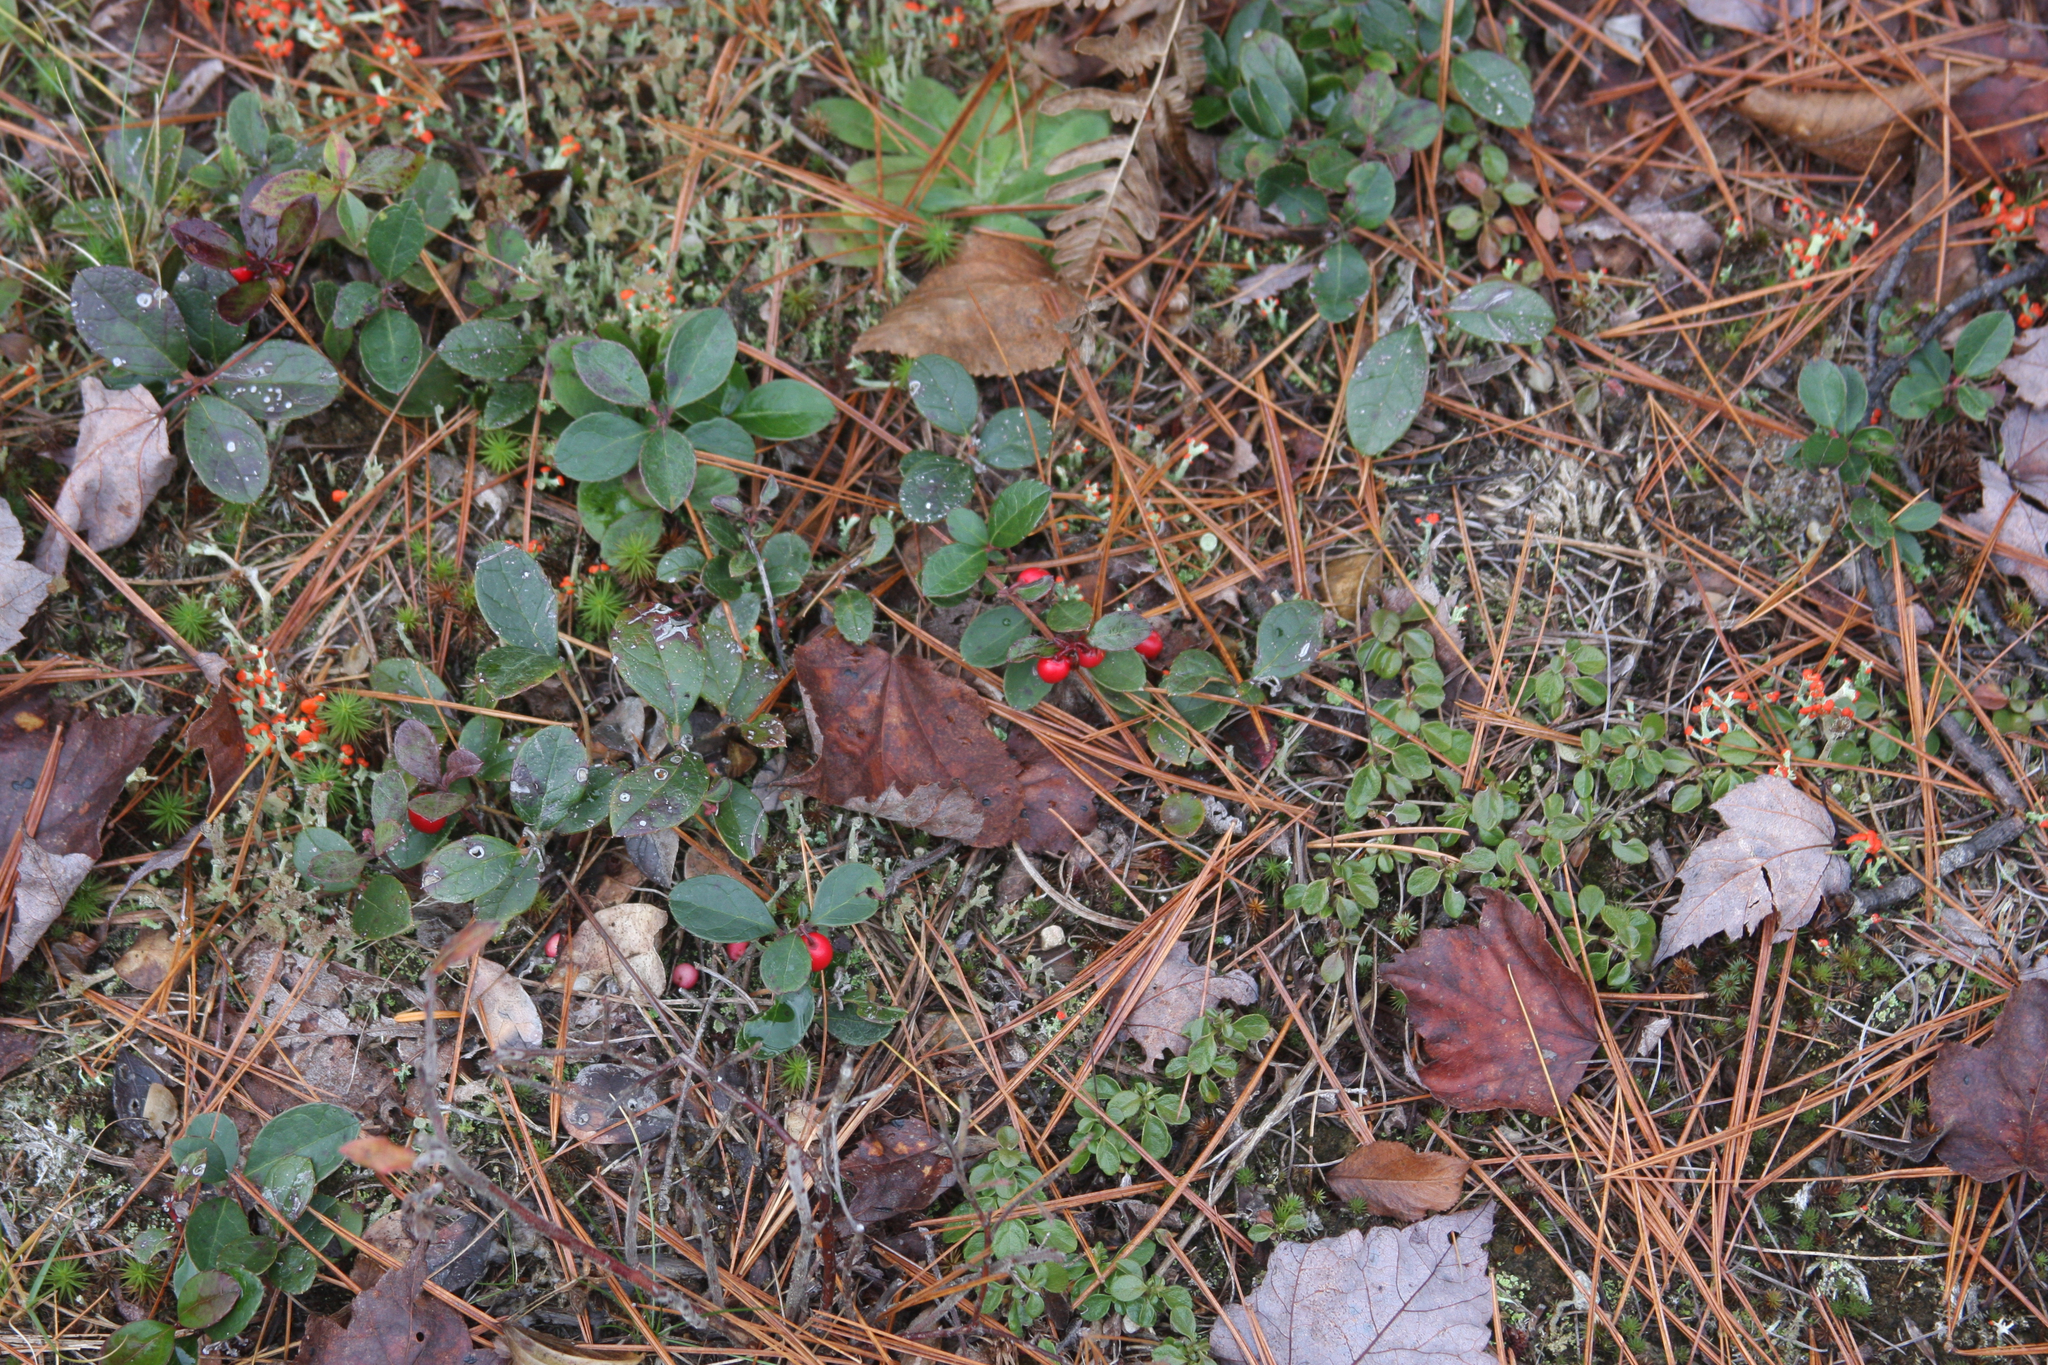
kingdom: Plantae
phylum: Tracheophyta
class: Magnoliopsida
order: Ericales
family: Ericaceae
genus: Gaultheria
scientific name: Gaultheria procumbens
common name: Checkerberry
